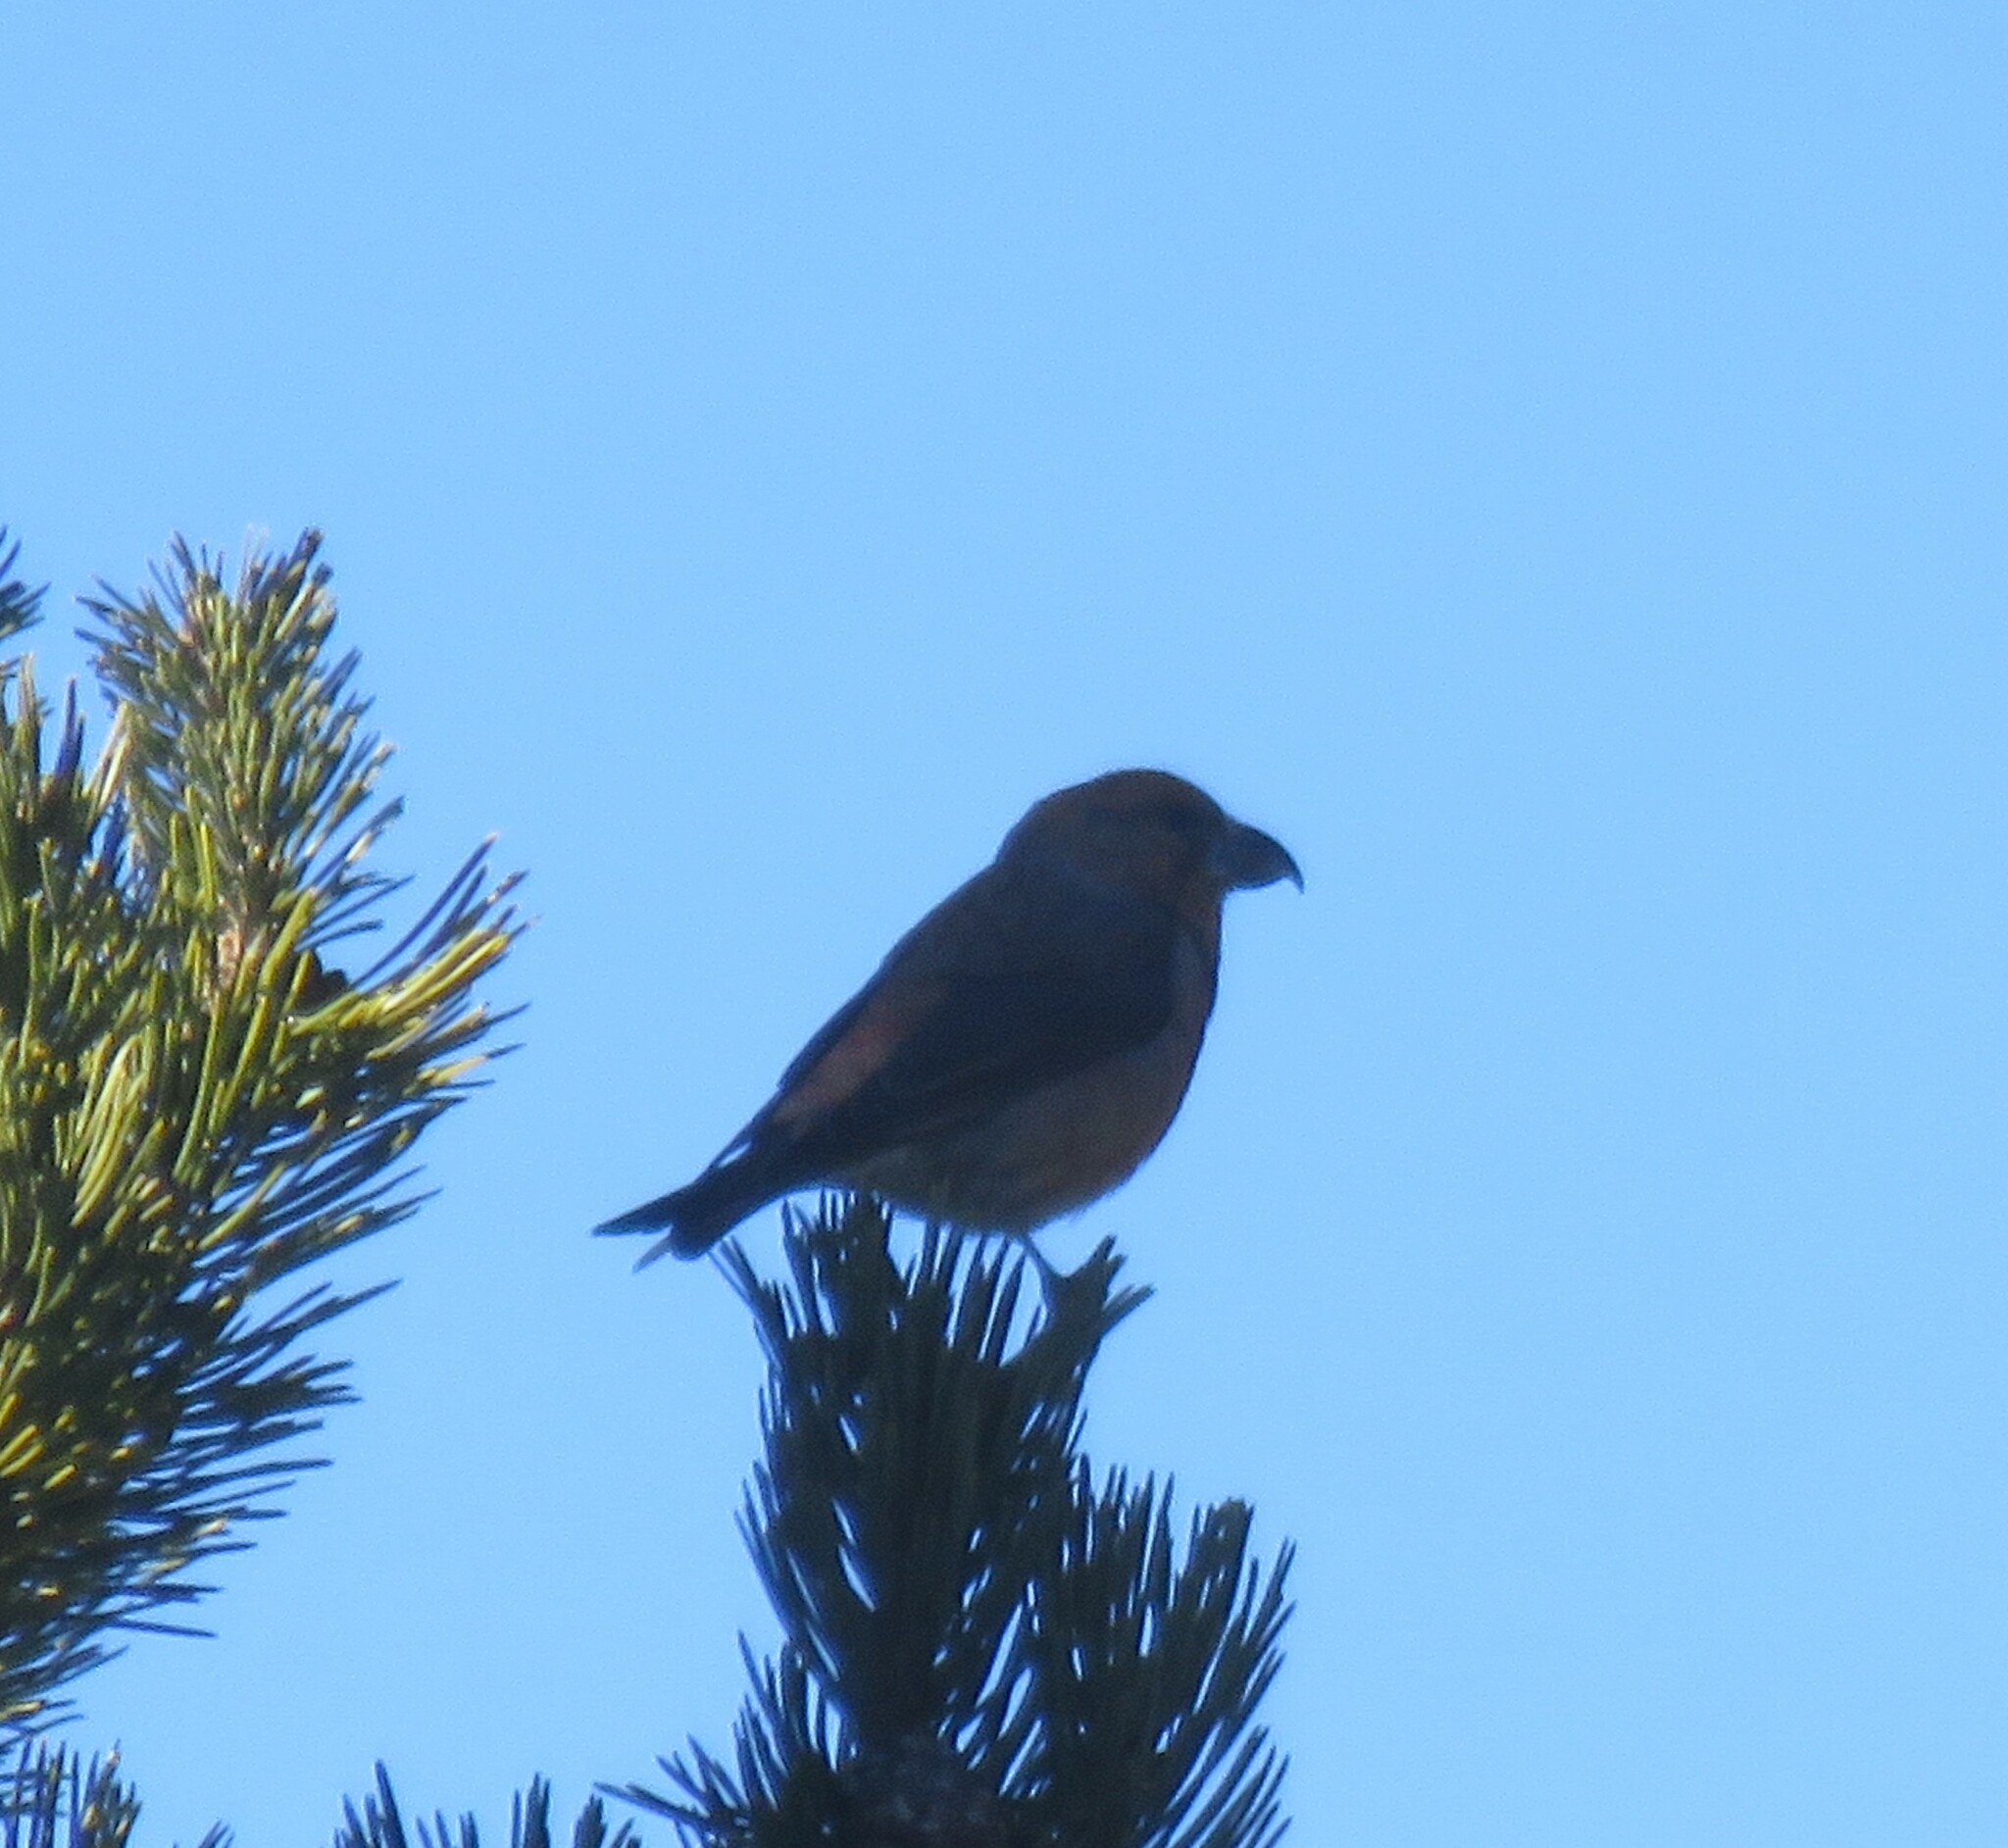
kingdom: Animalia
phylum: Chordata
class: Aves
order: Passeriformes
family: Fringillidae
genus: Loxia
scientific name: Loxia curvirostra
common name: Red crossbill
